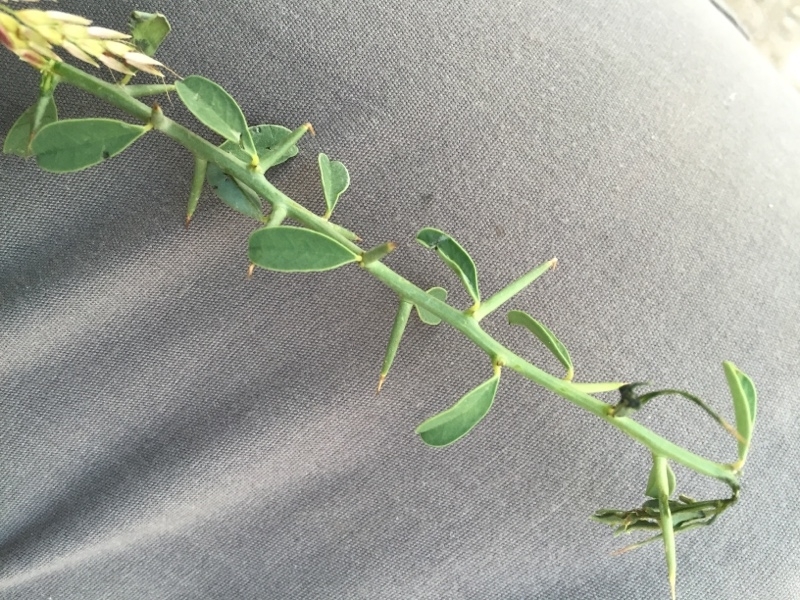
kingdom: Plantae
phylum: Tracheophyta
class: Magnoliopsida
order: Fabales
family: Fabaceae
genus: Alhagi
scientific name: Alhagi pseudalhagi
